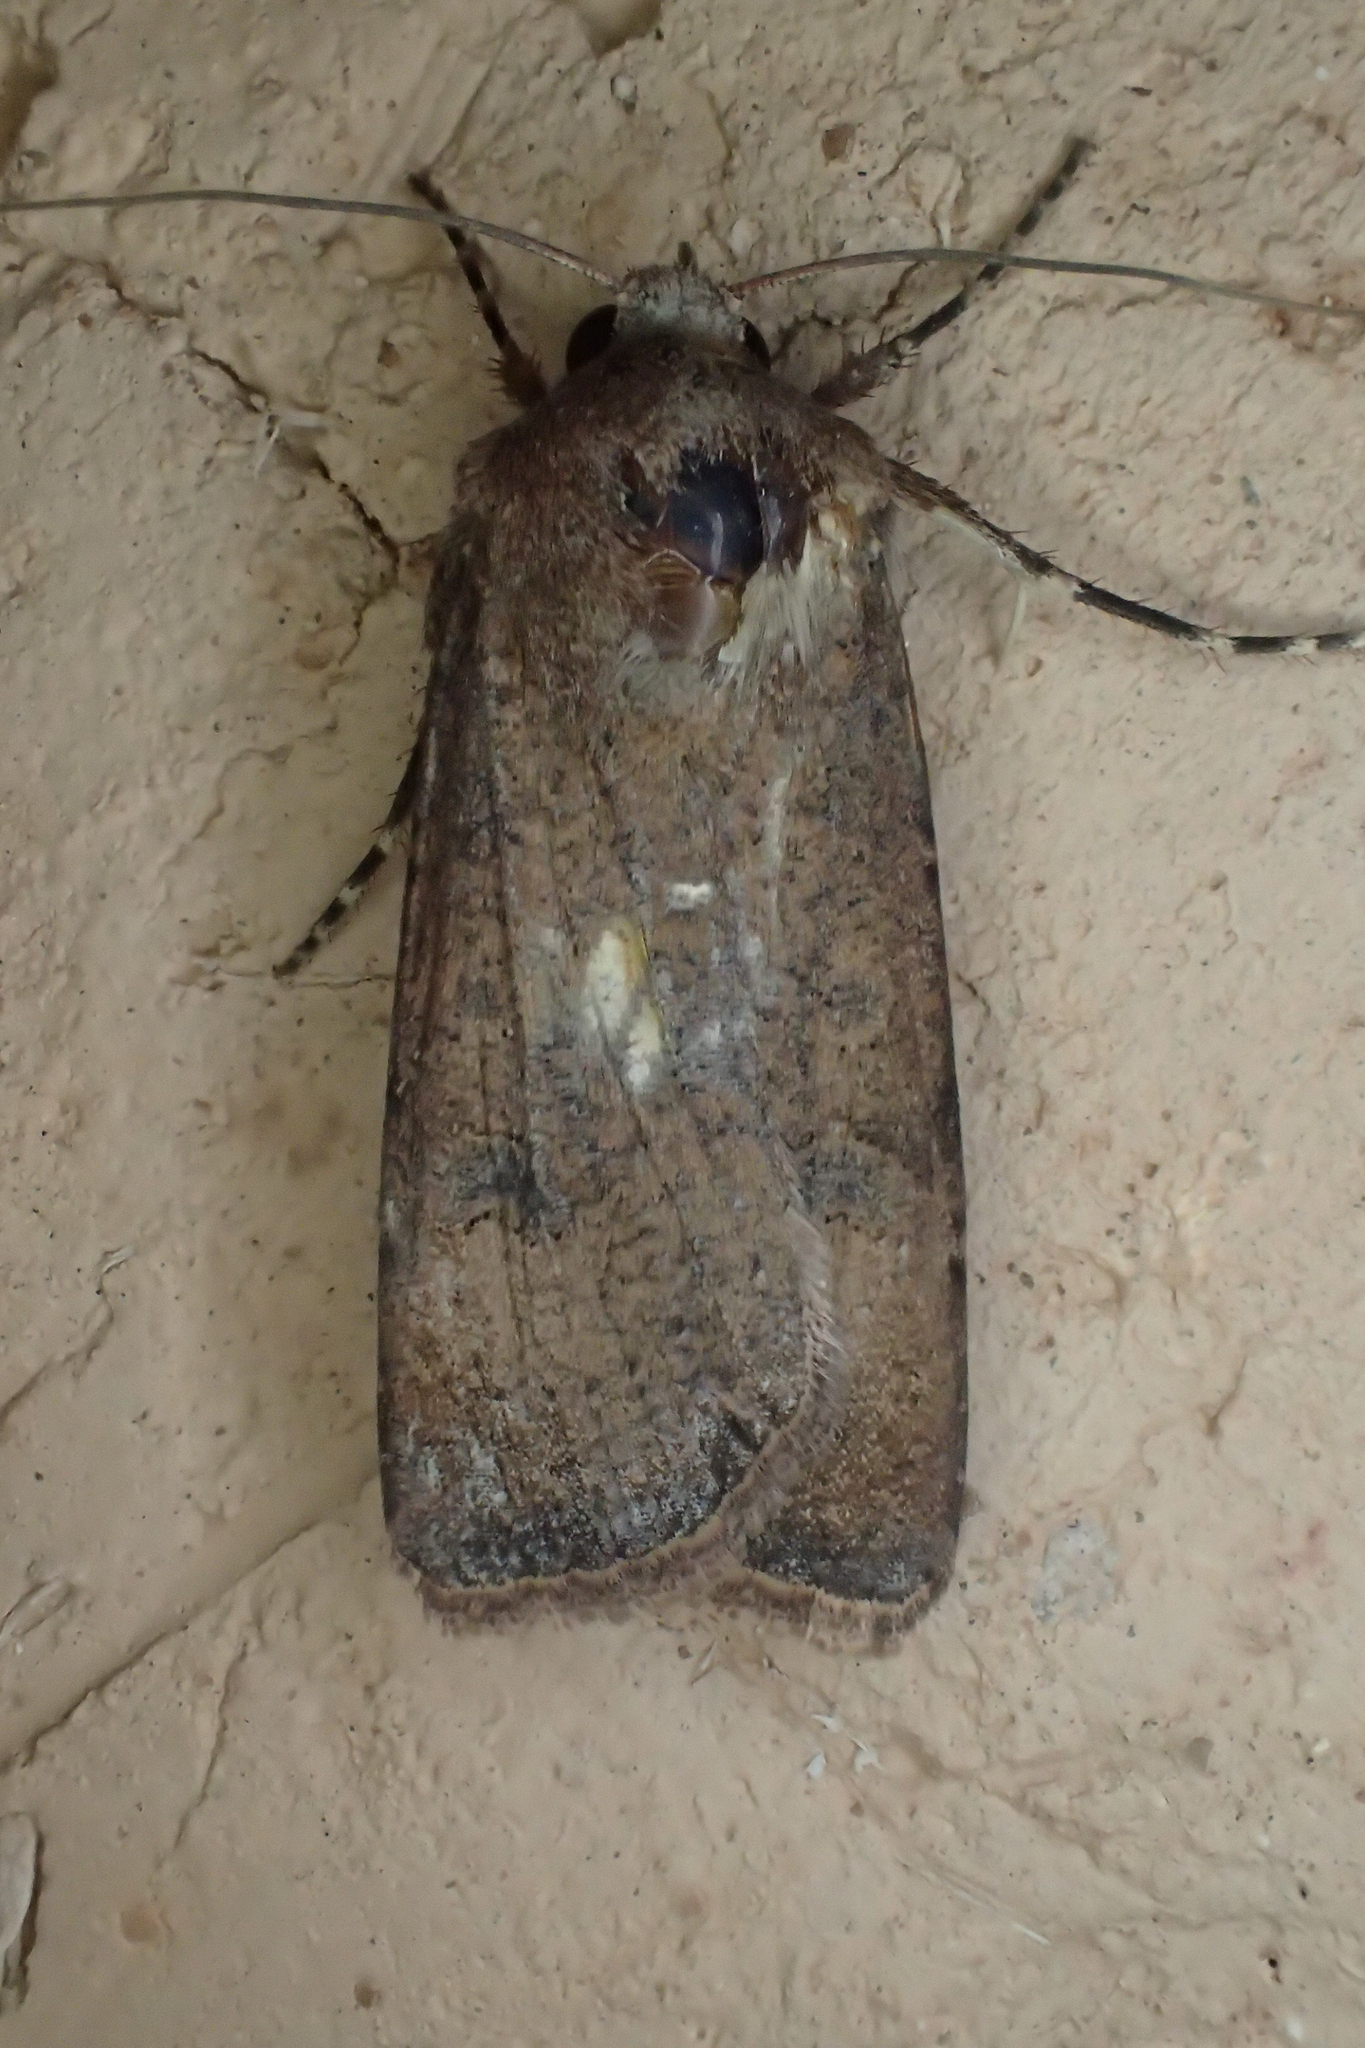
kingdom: Animalia
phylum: Arthropoda
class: Insecta
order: Lepidoptera
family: Noctuidae
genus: Agrotis
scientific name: Agrotis trux
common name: Crescent dart
